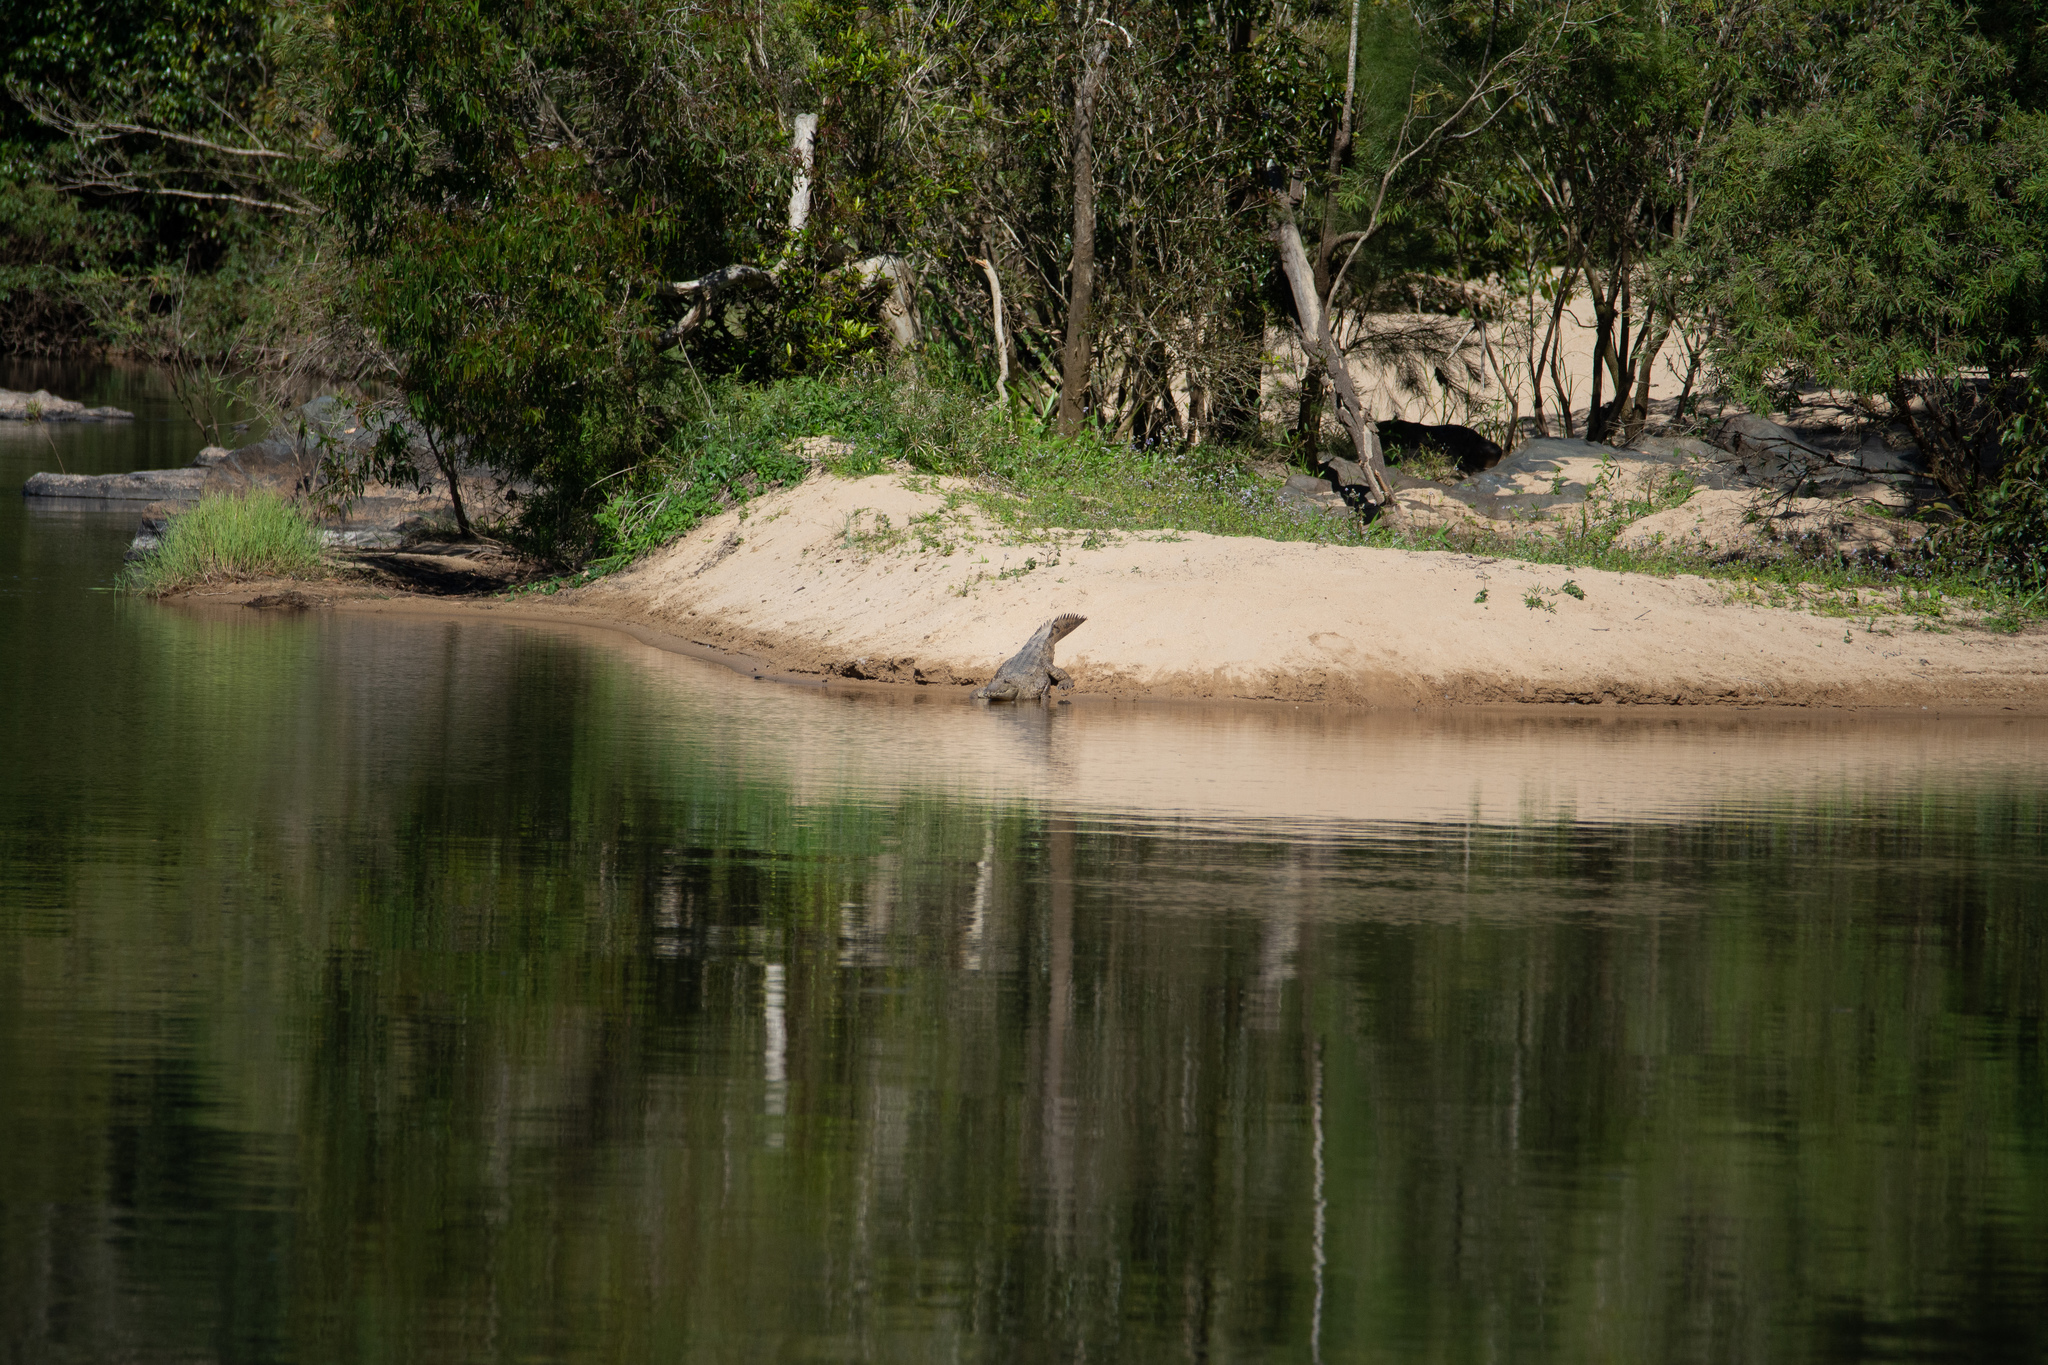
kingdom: Animalia
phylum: Chordata
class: Crocodylia
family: Crocodylidae
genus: Crocodylus
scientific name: Crocodylus johnsoni
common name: Freshwater crocodile
